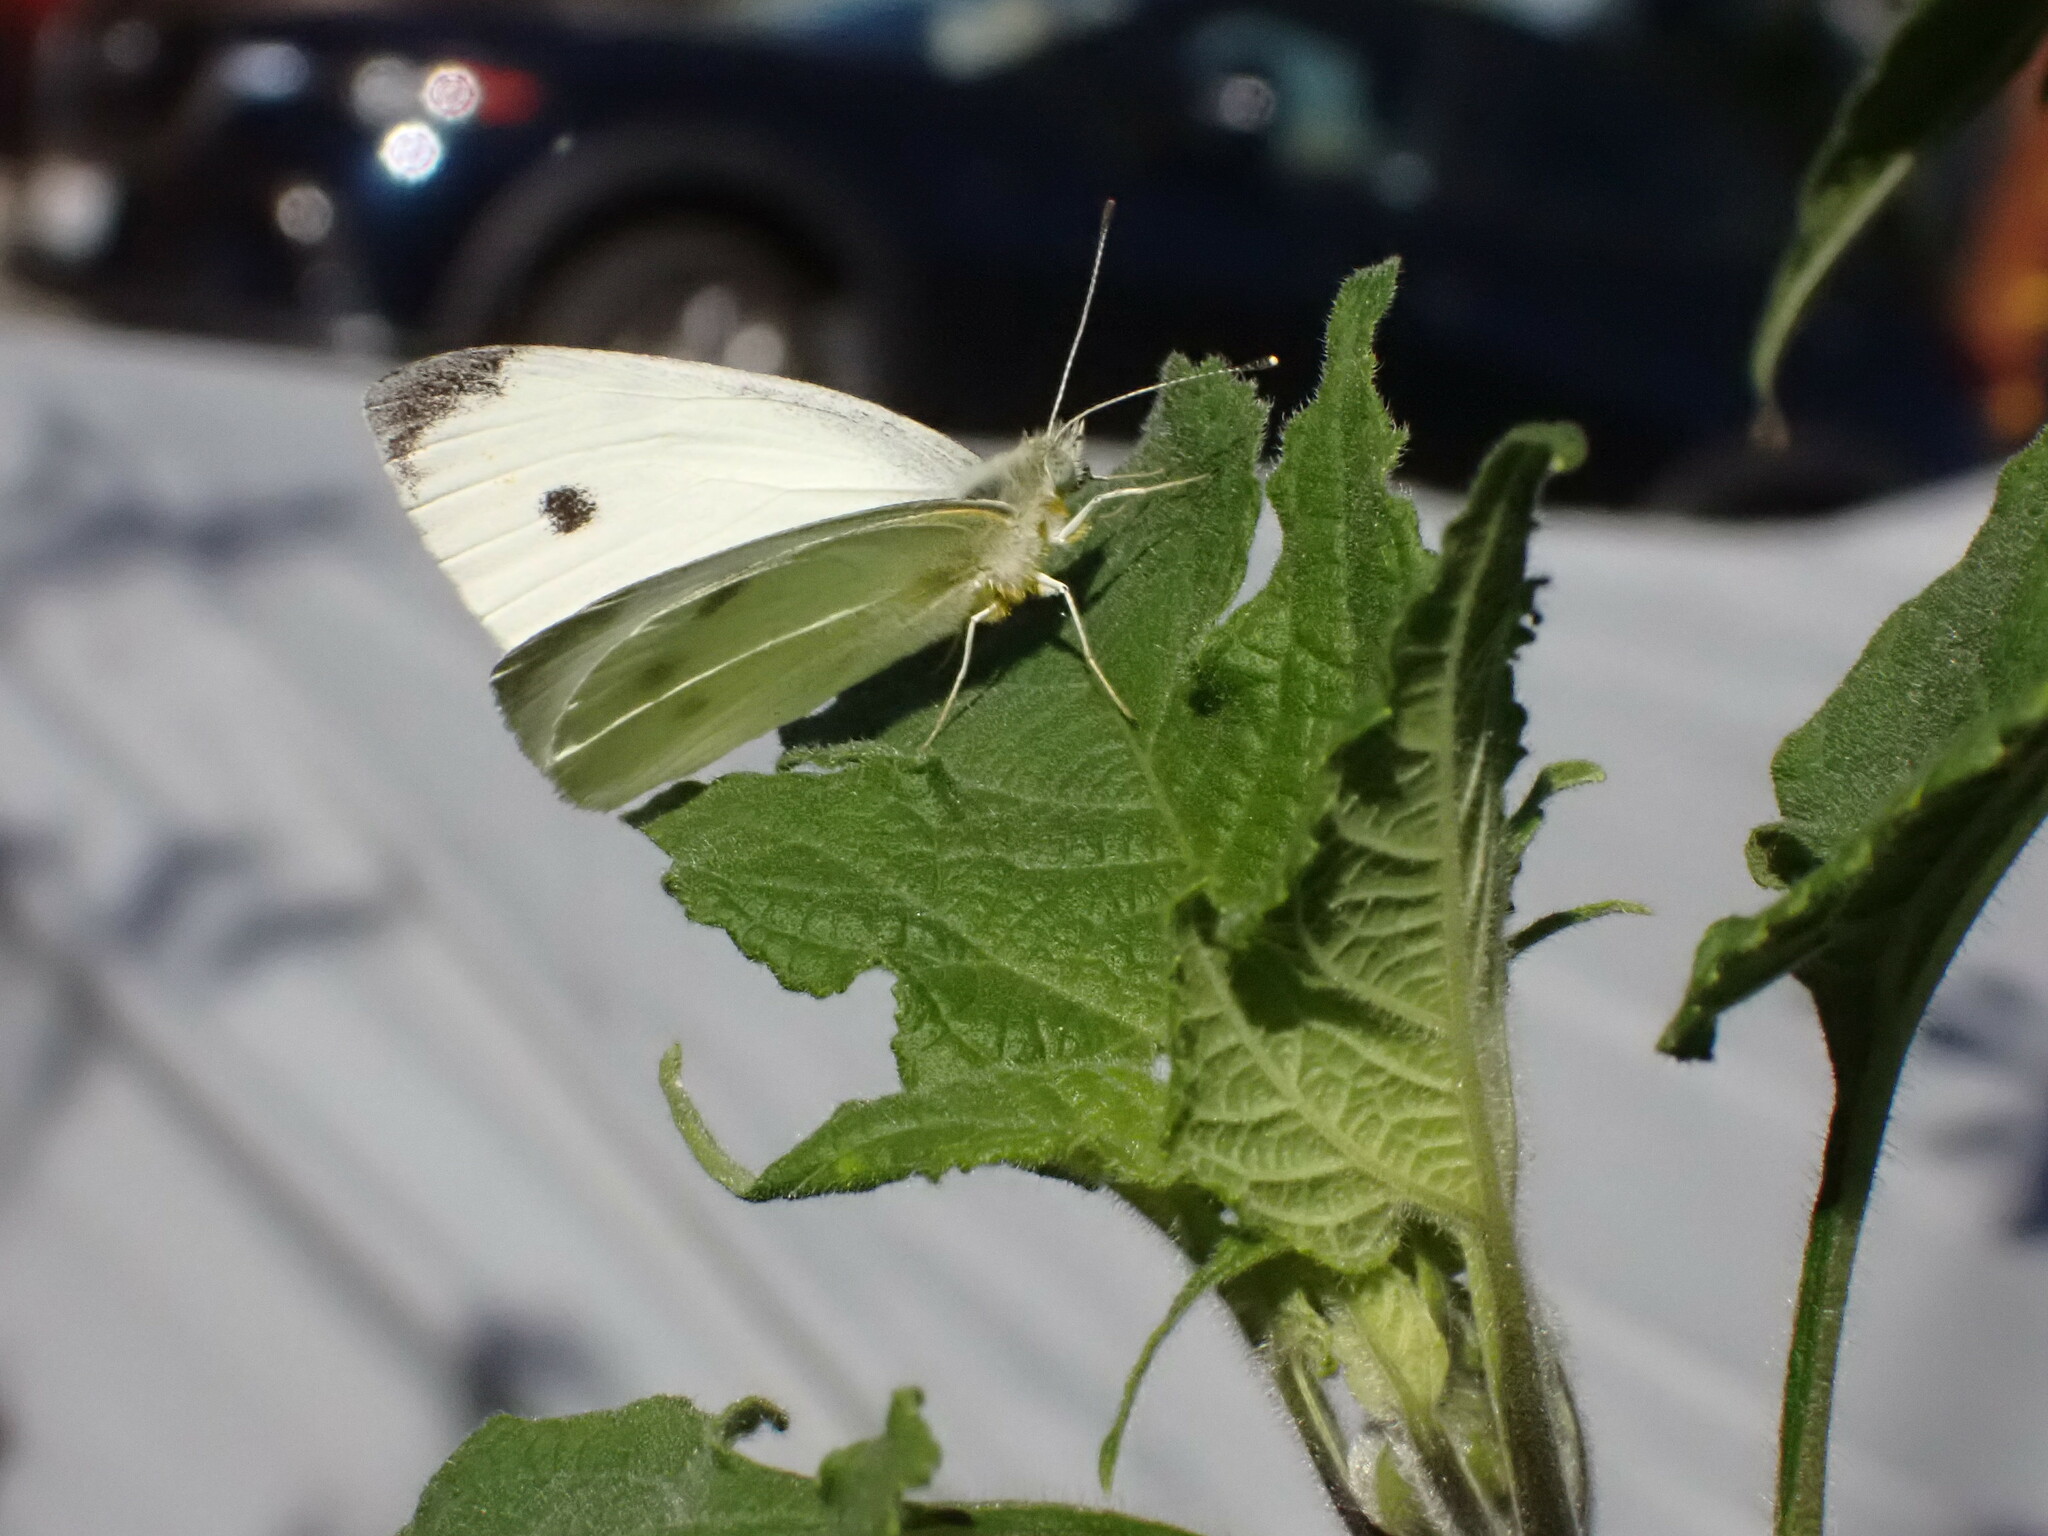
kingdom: Animalia
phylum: Arthropoda
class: Insecta
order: Lepidoptera
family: Pieridae
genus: Pieris
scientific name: Pieris rapae
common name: Small white
